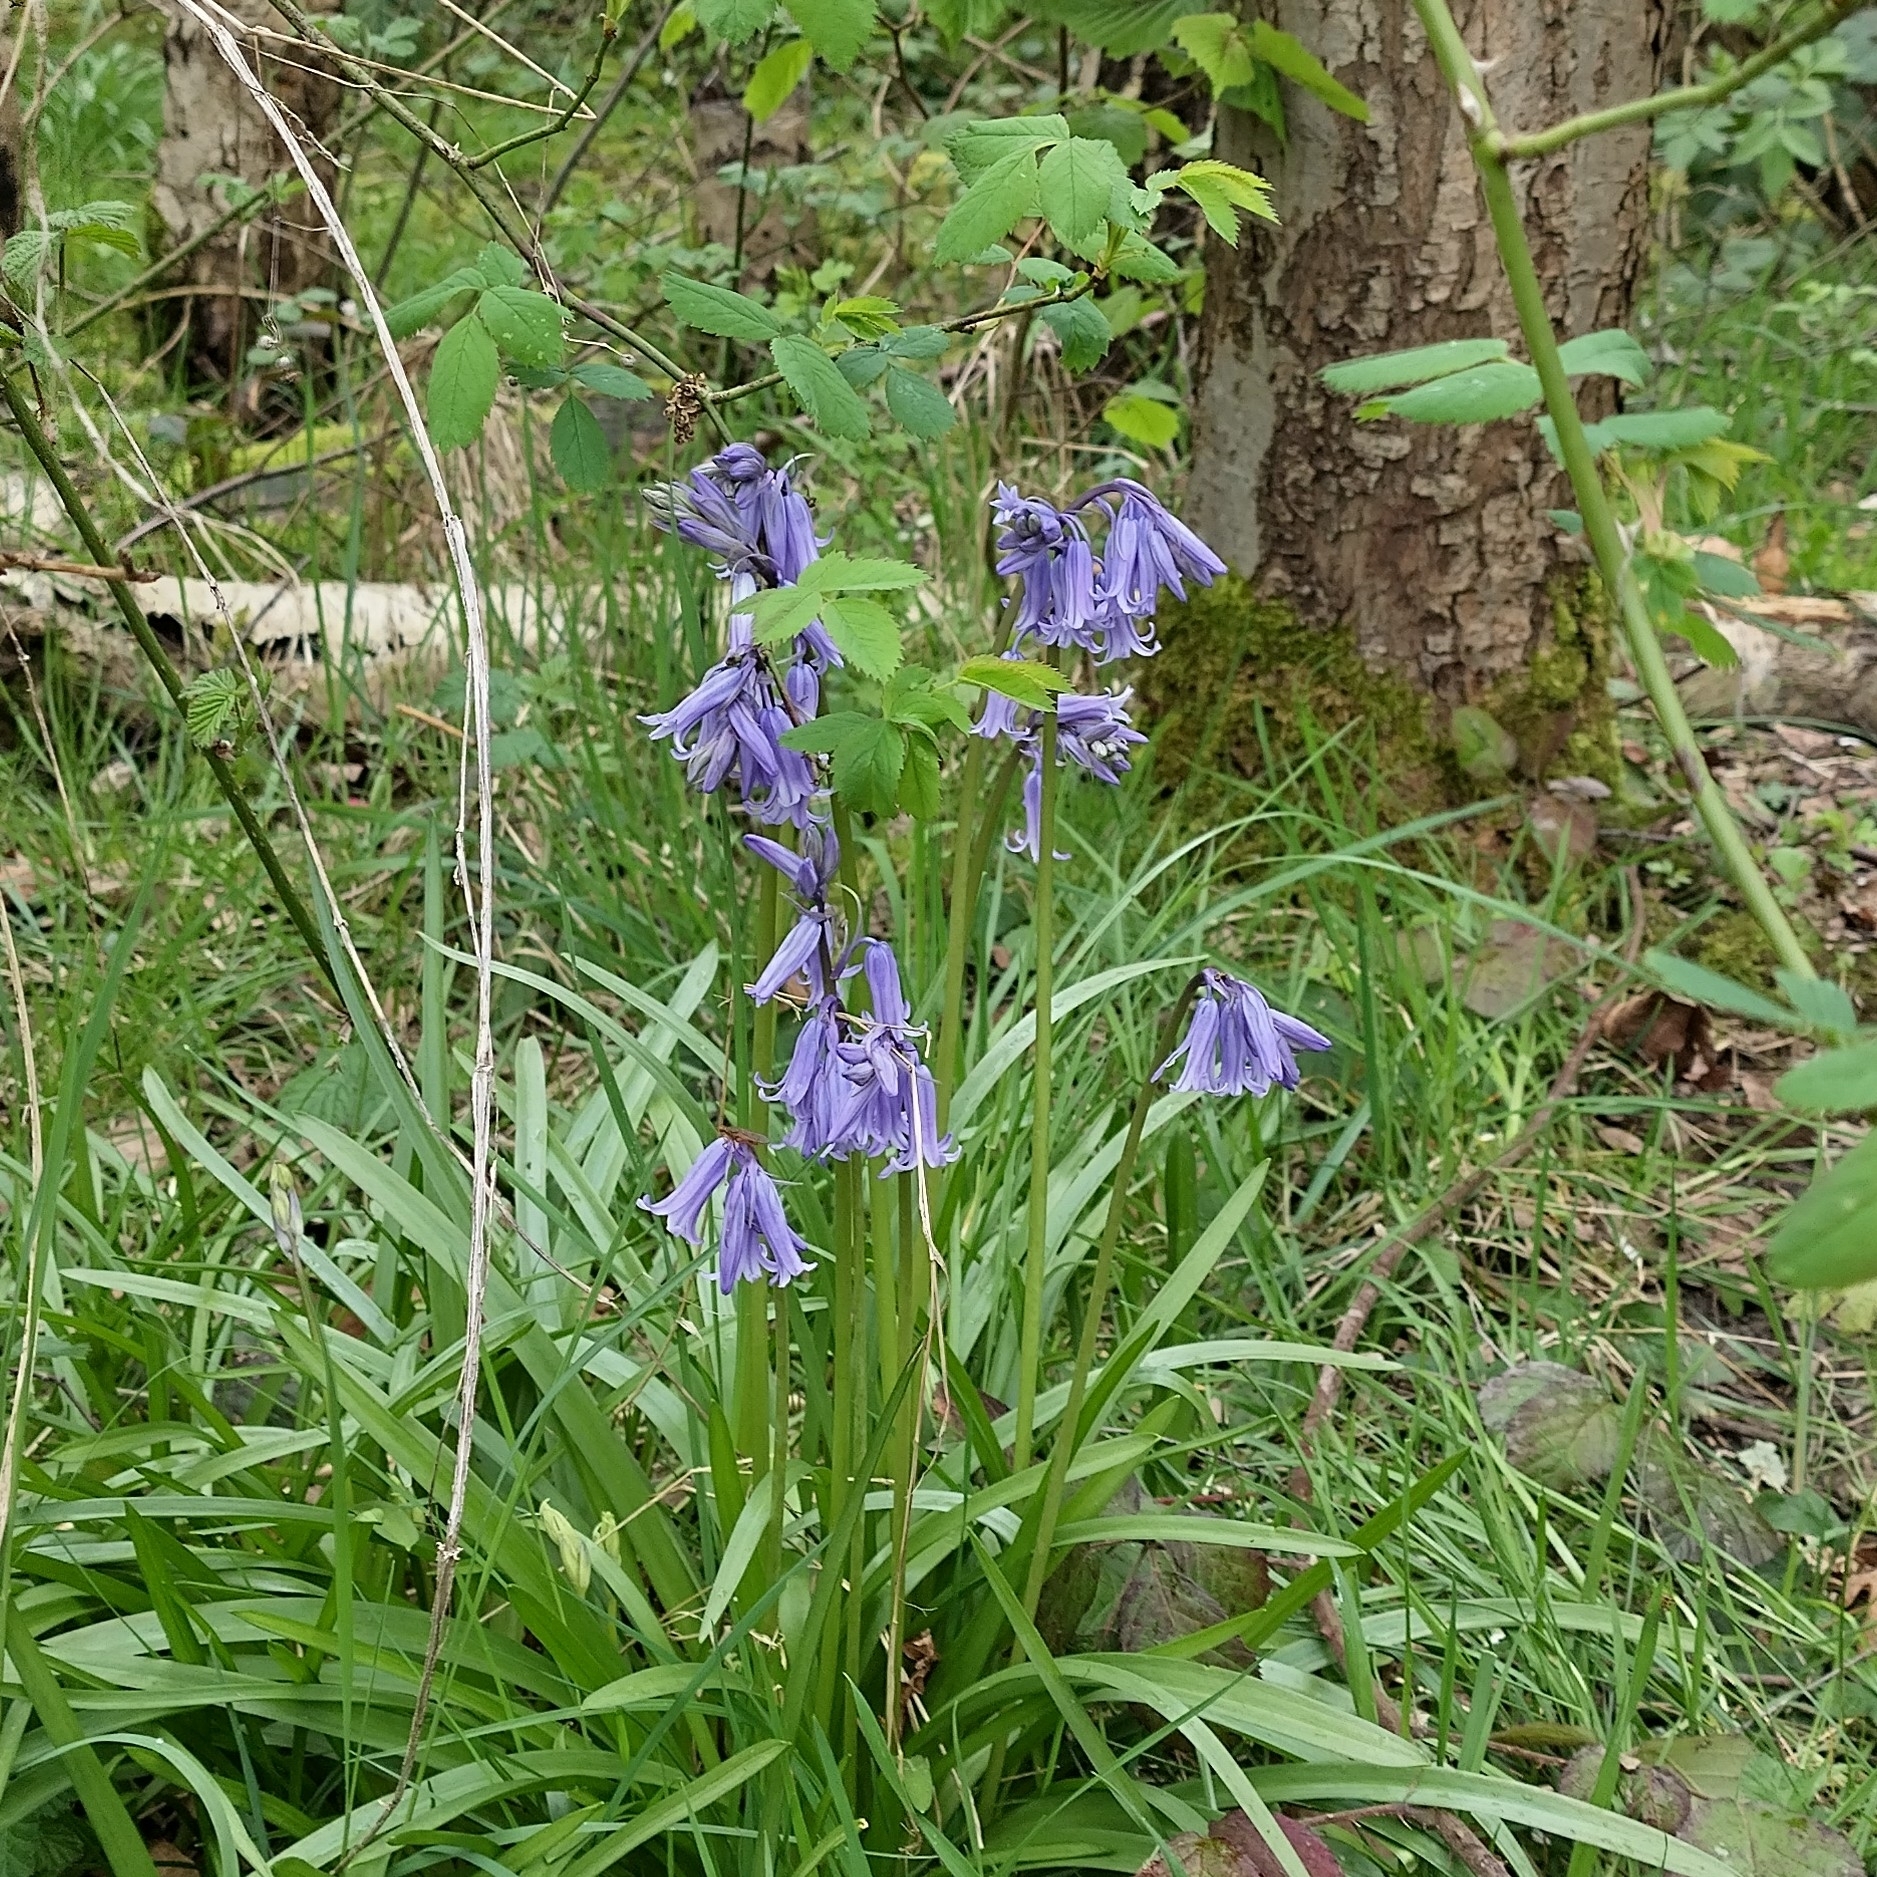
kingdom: Plantae
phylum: Tracheophyta
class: Liliopsida
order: Asparagales
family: Asparagaceae
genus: Hyacinthoides
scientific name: Hyacinthoides non-scripta
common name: Bluebell
